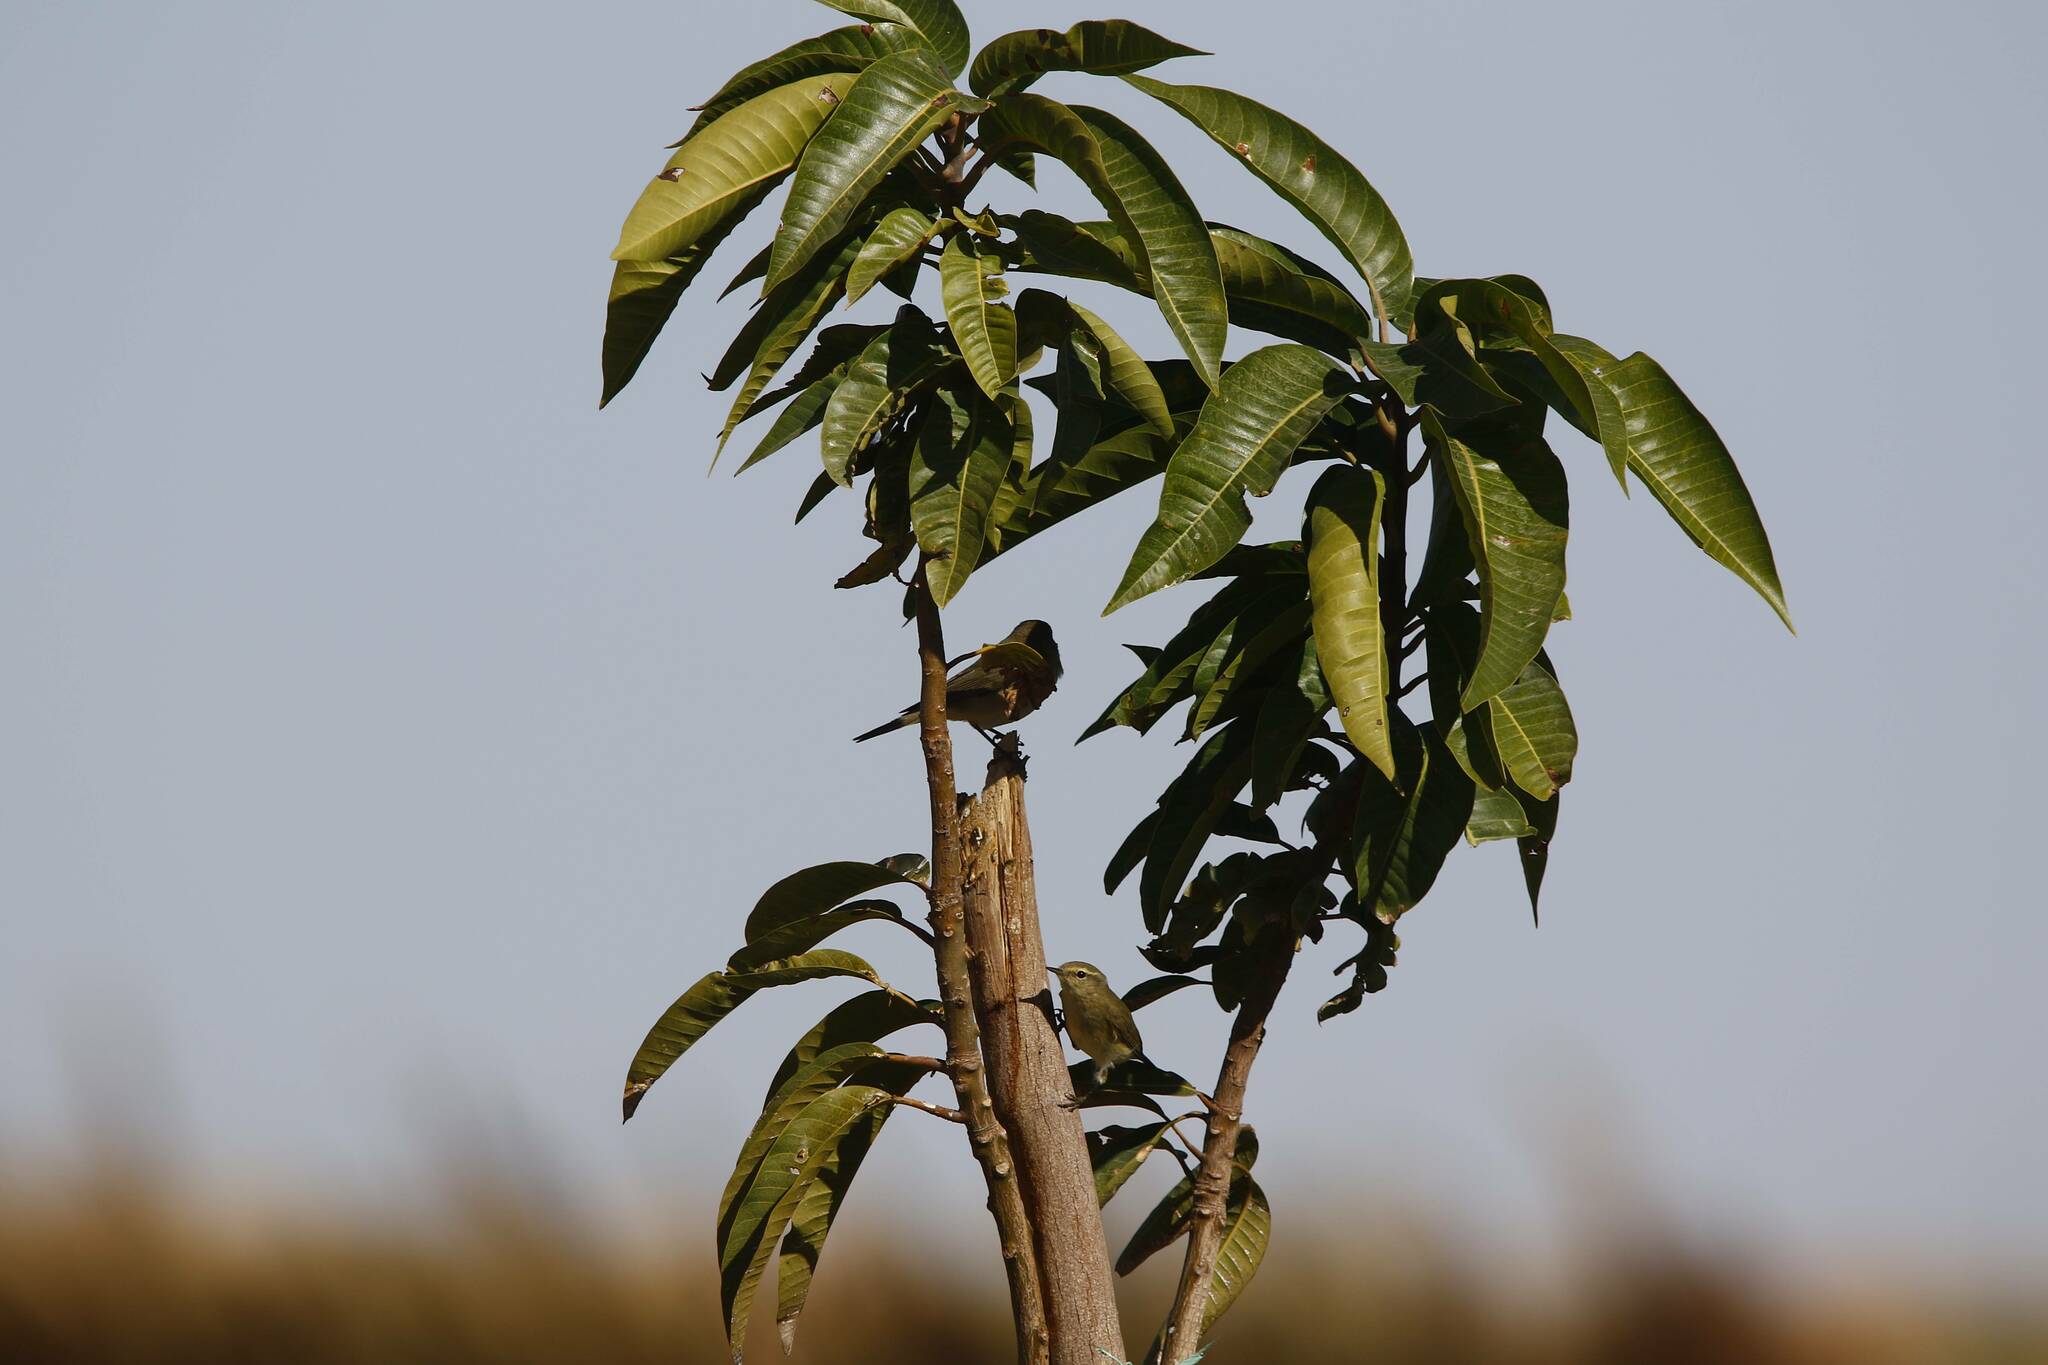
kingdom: Animalia
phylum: Chordata
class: Aves
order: Passeriformes
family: Phylloscopidae
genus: Phylloscopus
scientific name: Phylloscopus collybita
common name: Common chiffchaff
